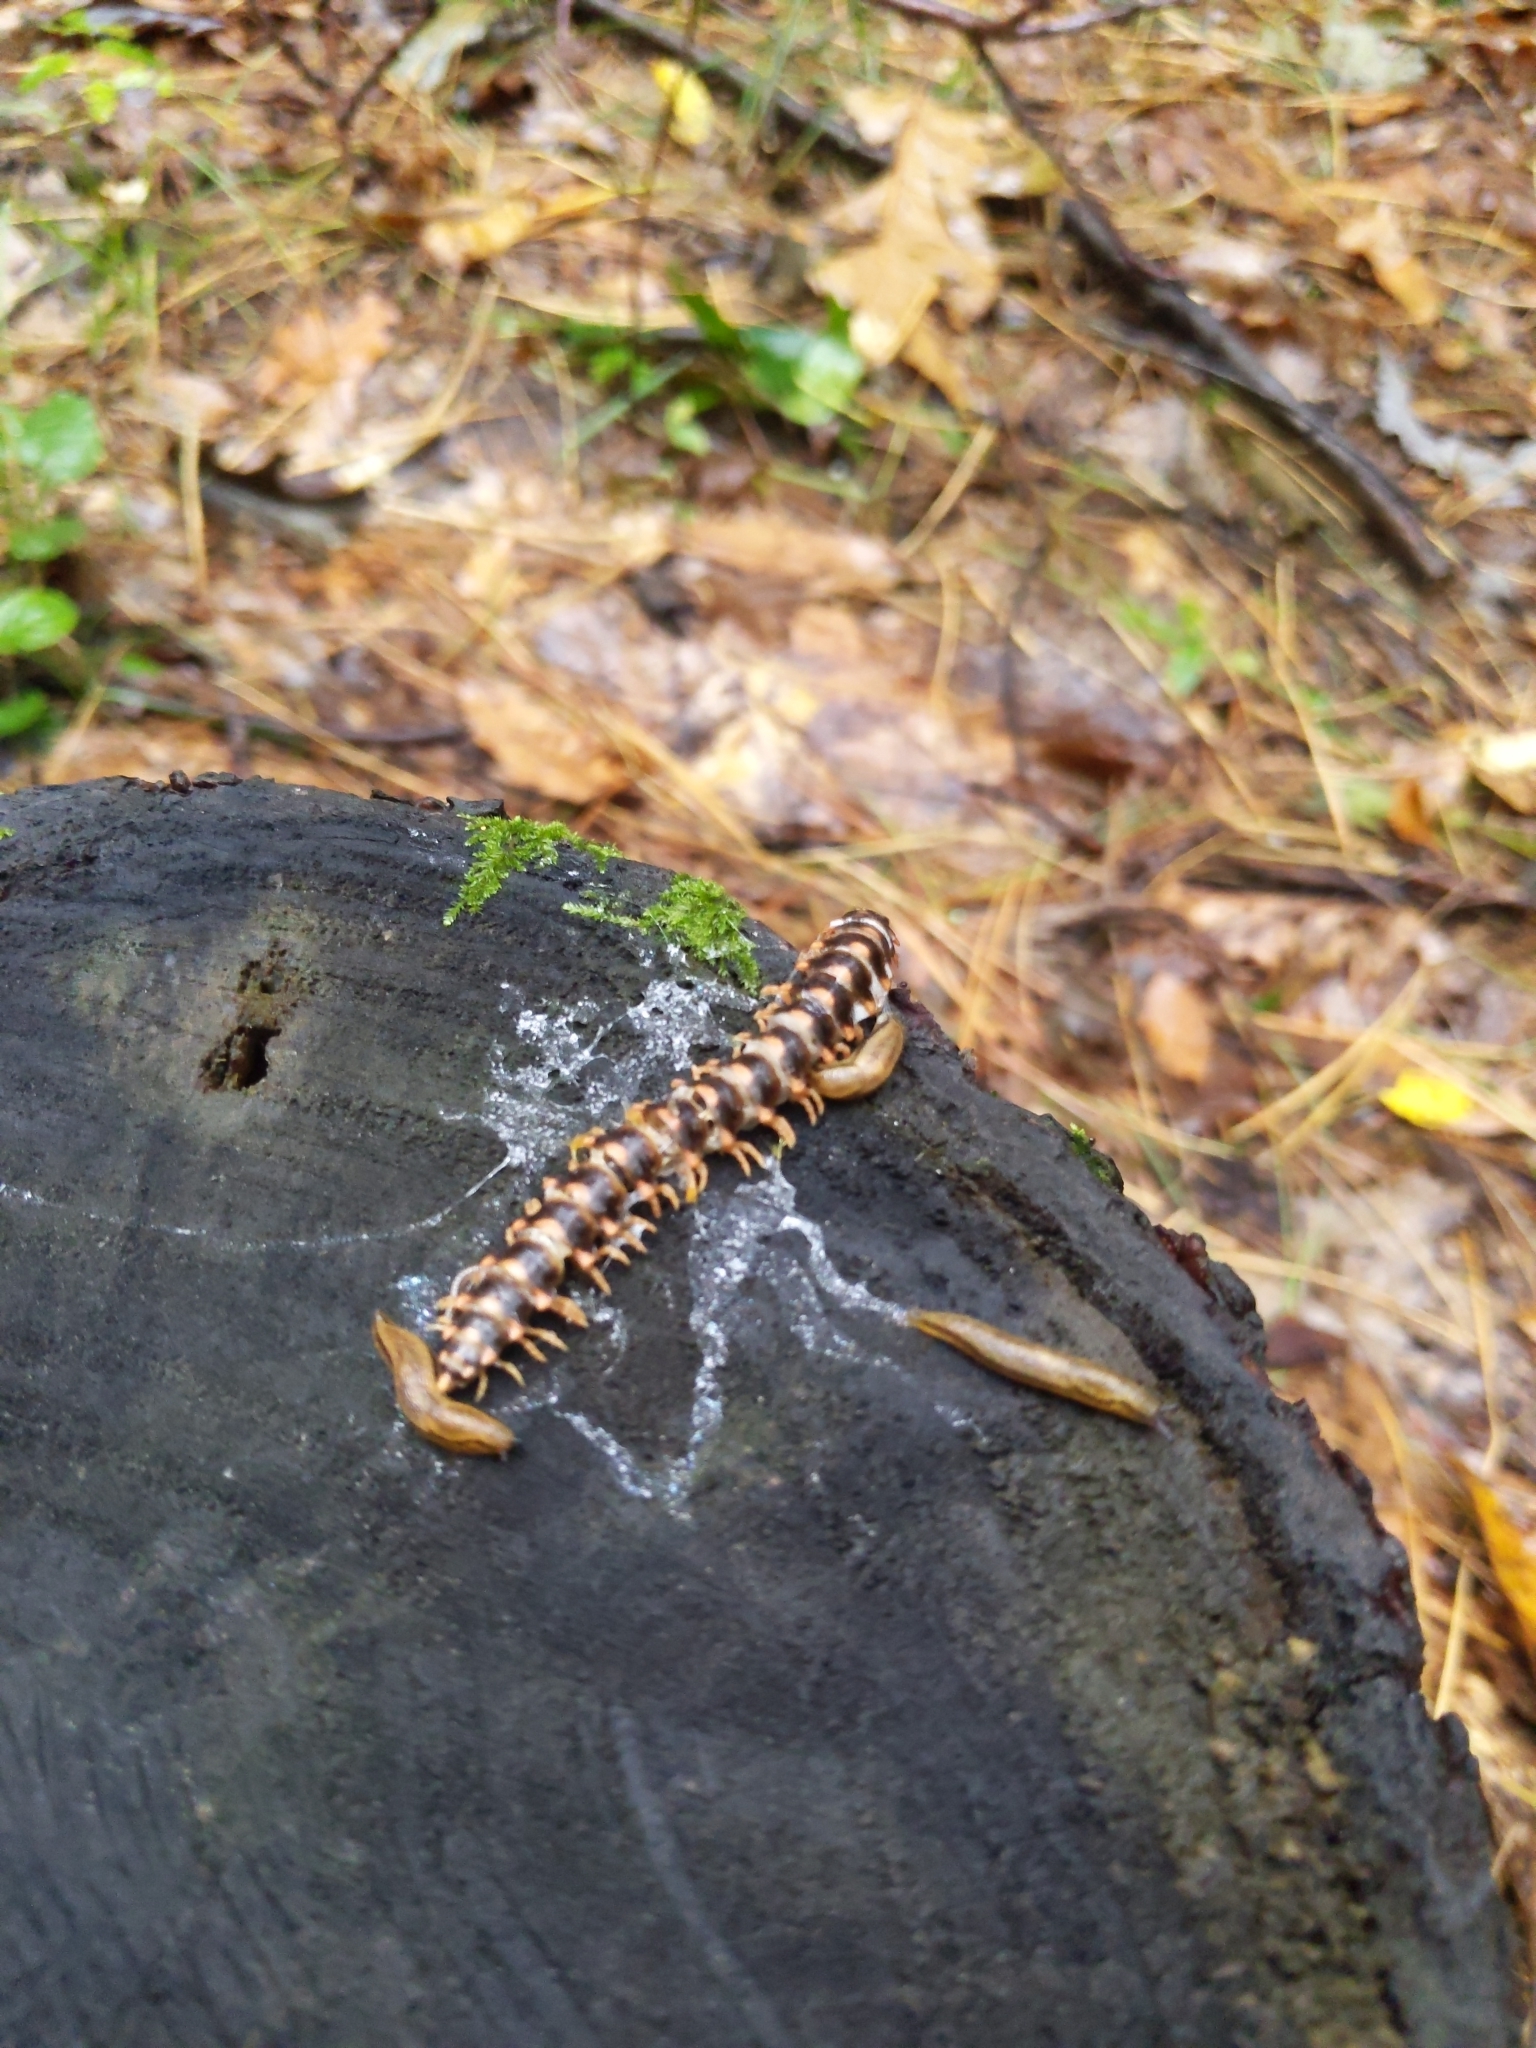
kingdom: Animalia
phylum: Arthropoda
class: Diplopoda
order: Polydesmida
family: Xystodesmidae
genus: Rudiloria
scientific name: Rudiloria trimaculata
